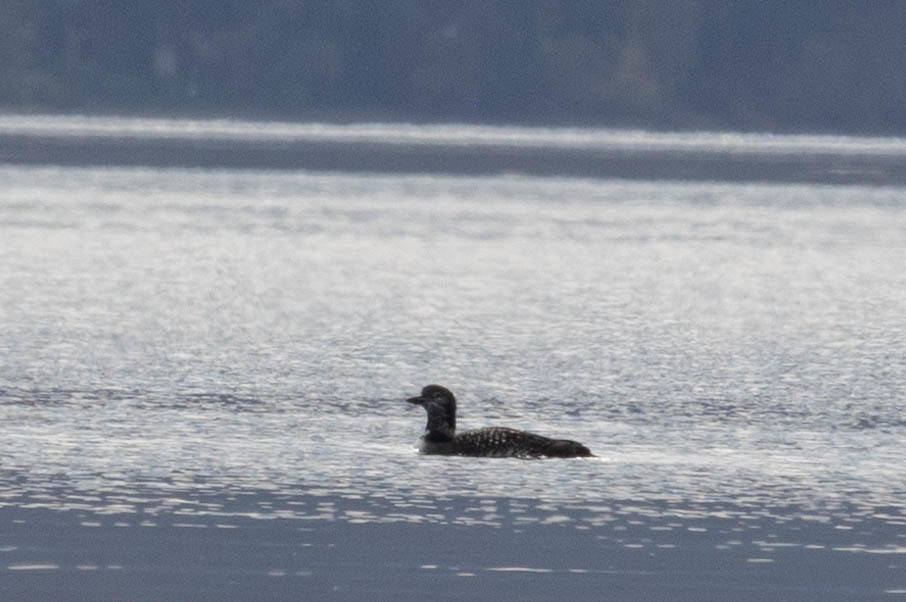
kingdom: Animalia
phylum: Chordata
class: Aves
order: Gaviiformes
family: Gaviidae
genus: Gavia
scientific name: Gavia immer
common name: Common loon
